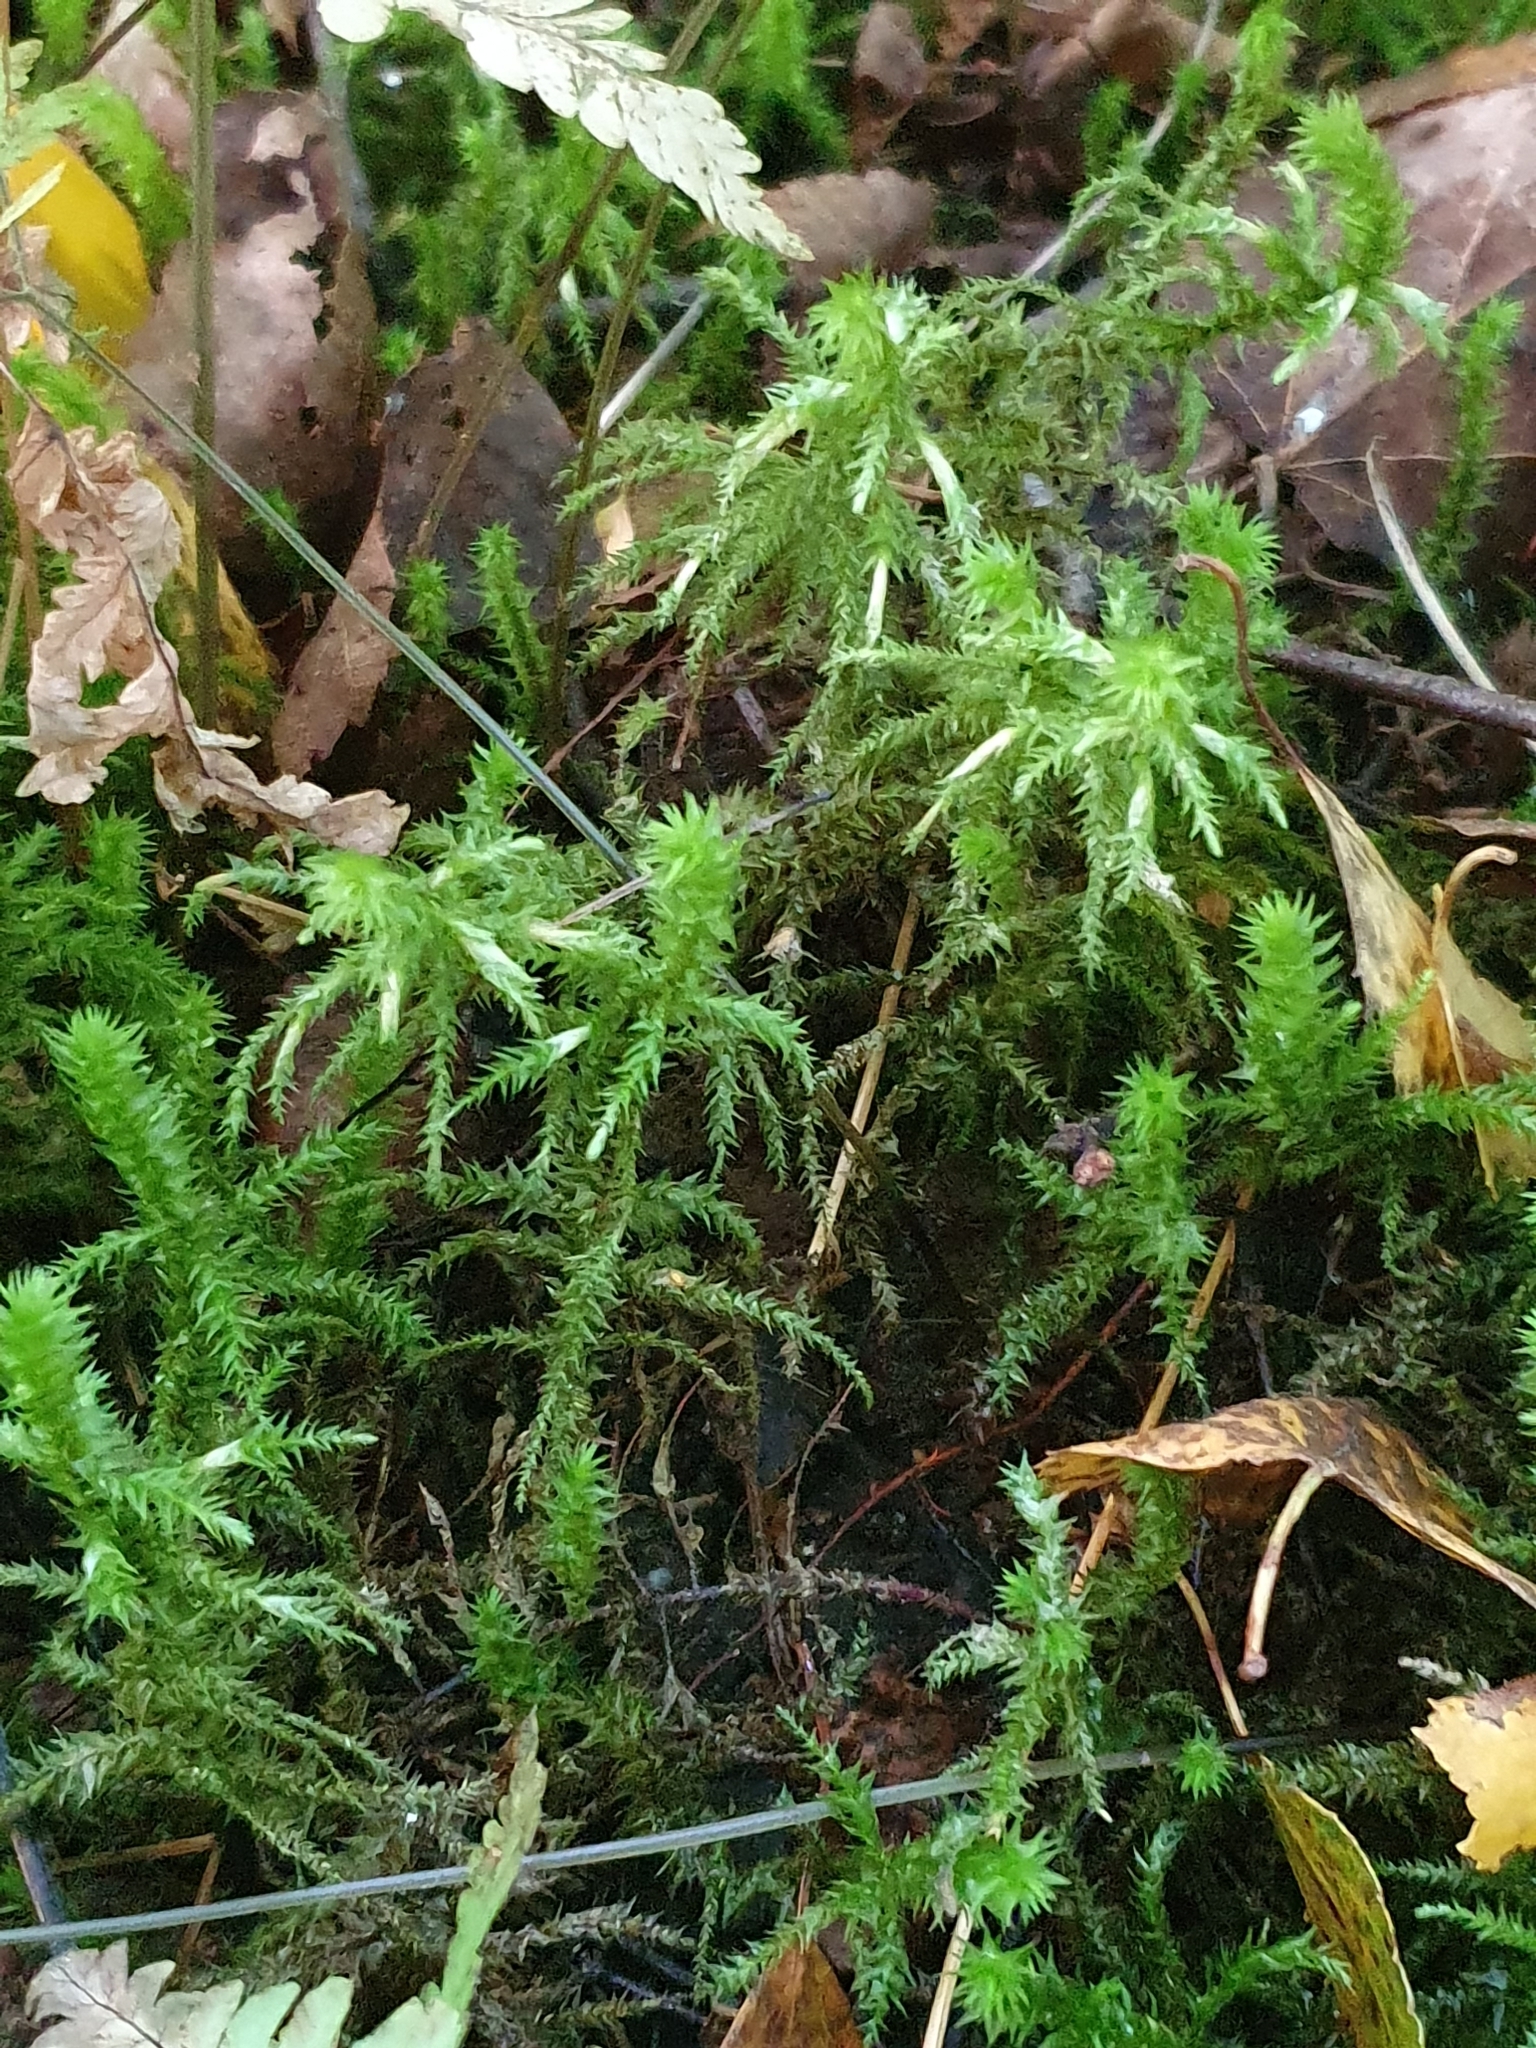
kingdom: Plantae
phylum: Bryophyta
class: Bryopsida
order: Hypnales
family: Hylocomiaceae
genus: Hylocomiadelphus
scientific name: Hylocomiadelphus triquetrus
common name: Rough goose neck moss
